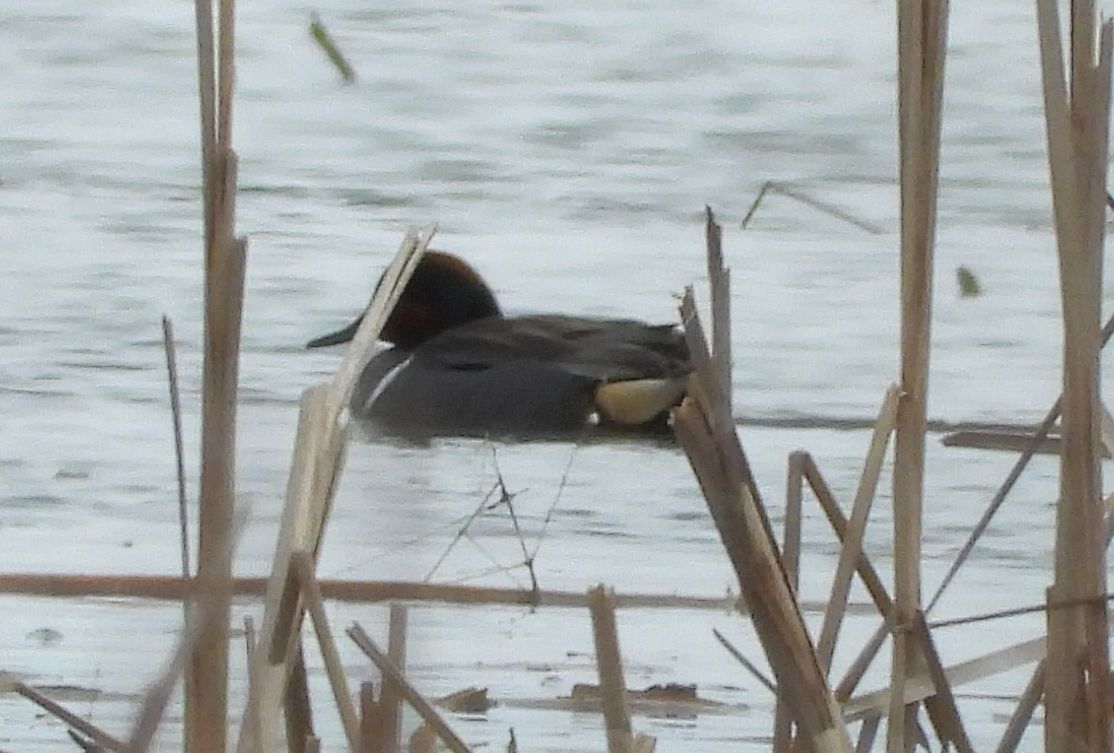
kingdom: Animalia
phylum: Chordata
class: Aves
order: Anseriformes
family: Anatidae
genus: Anas
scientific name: Anas crecca
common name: Eurasian teal
